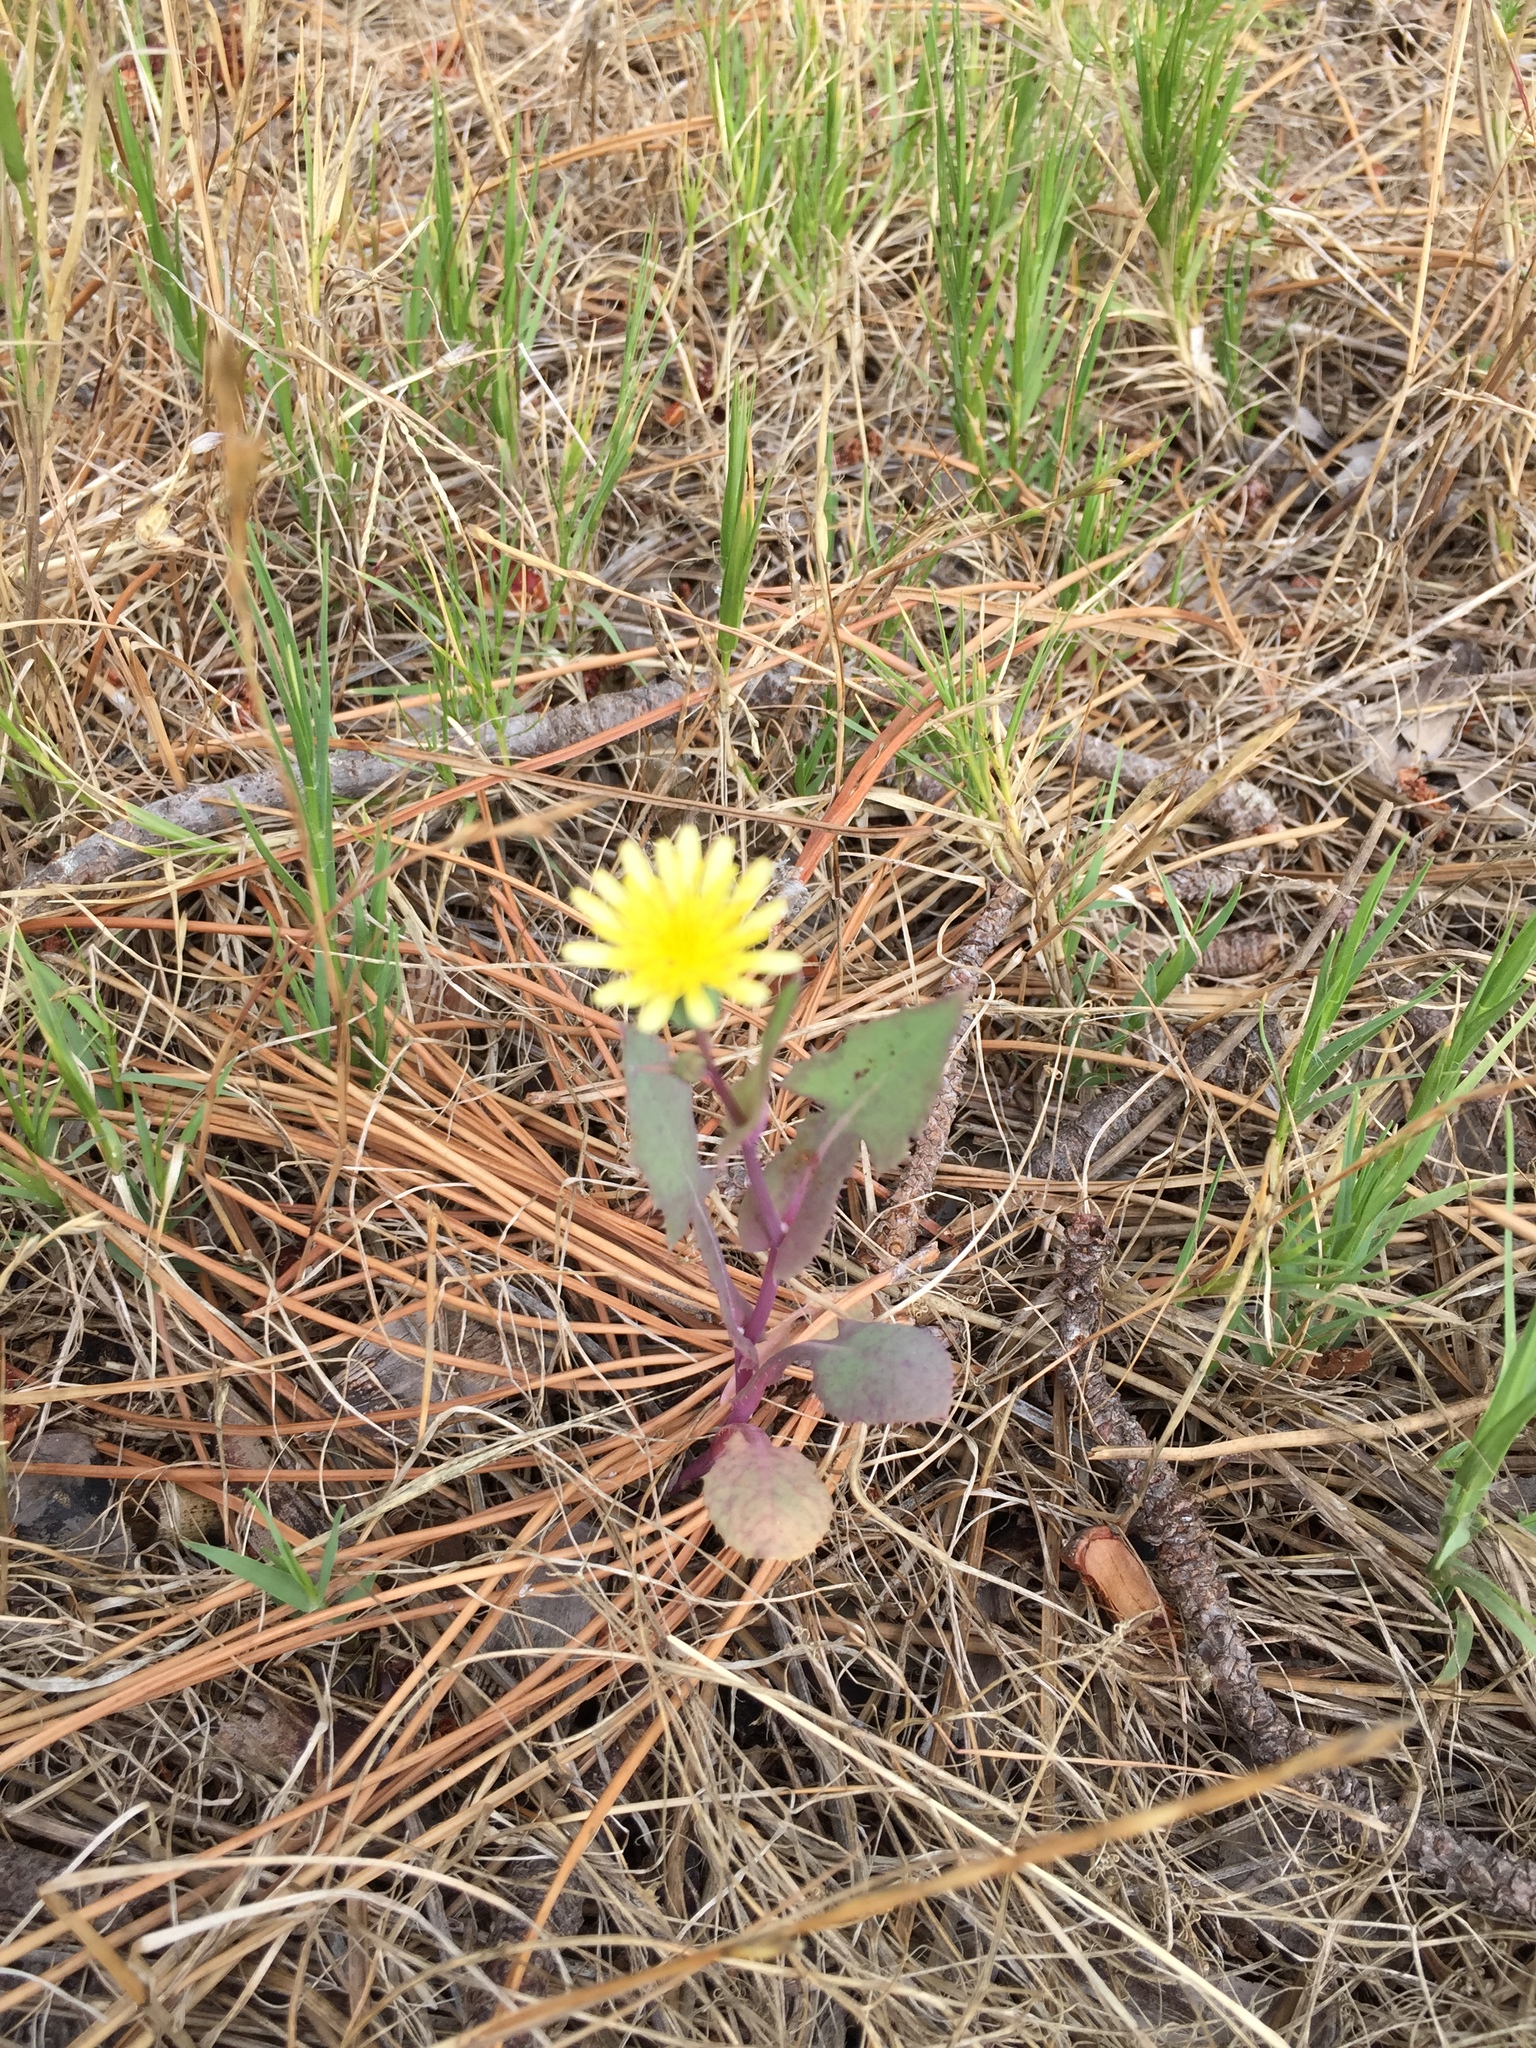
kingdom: Plantae
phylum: Tracheophyta
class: Magnoliopsida
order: Asterales
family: Asteraceae
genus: Sonchus
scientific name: Sonchus oleraceus
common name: Common sowthistle
